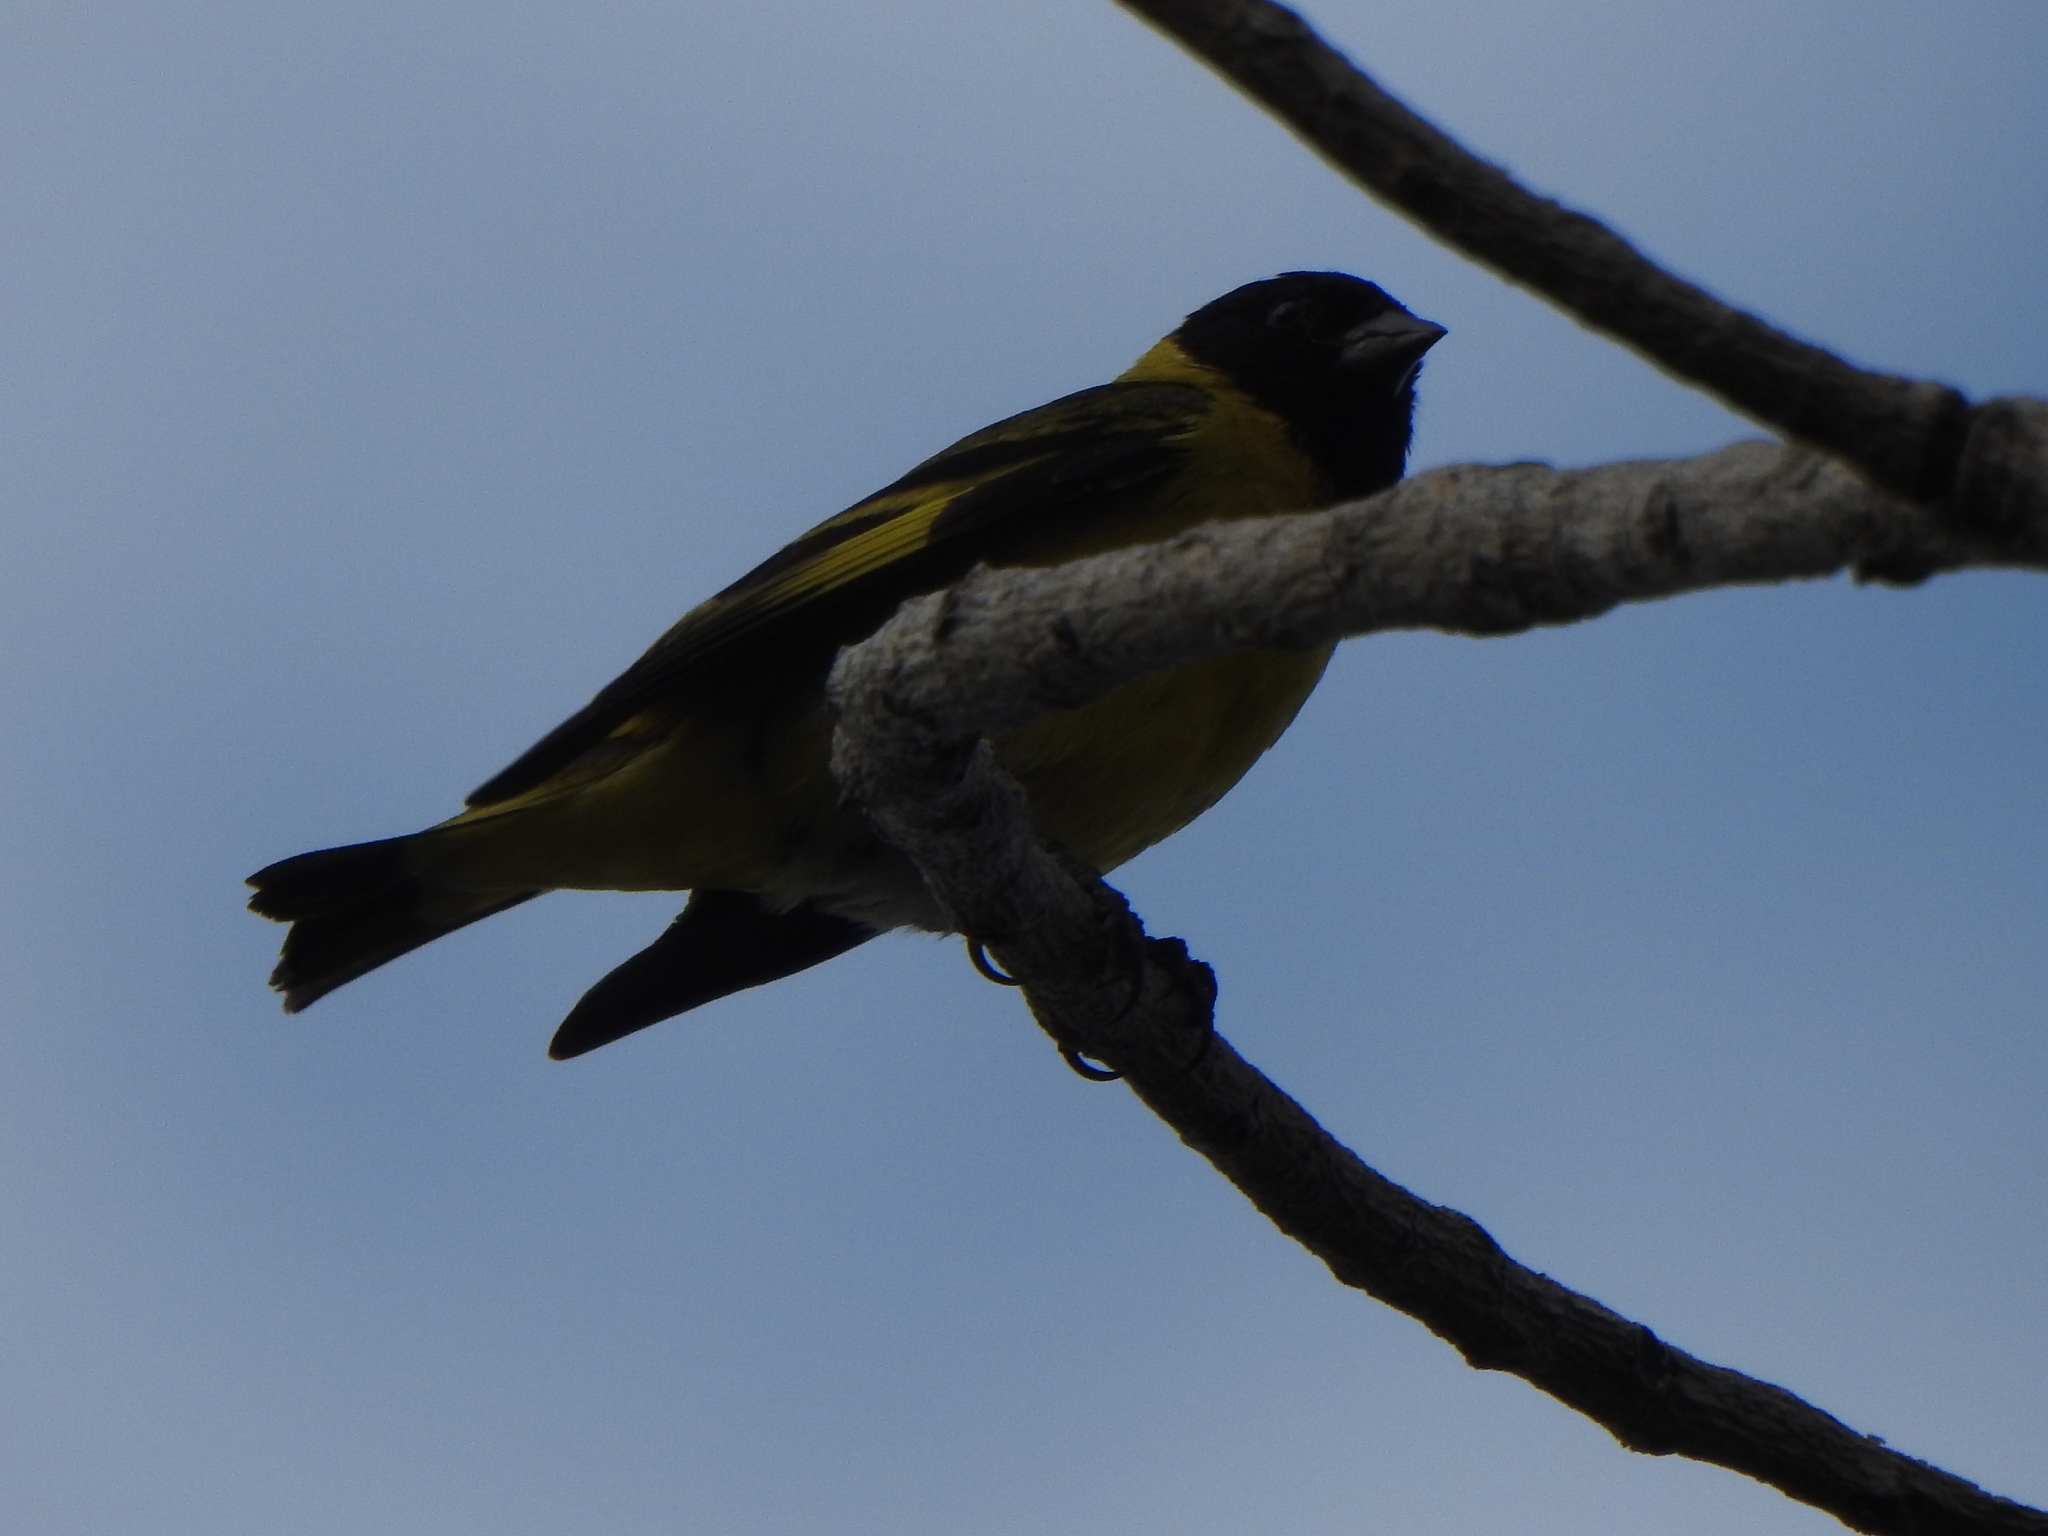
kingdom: Animalia
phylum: Chordata
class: Aves
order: Passeriformes
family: Fringillidae
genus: Spinus
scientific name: Spinus magellanicus
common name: Hooded siskin
